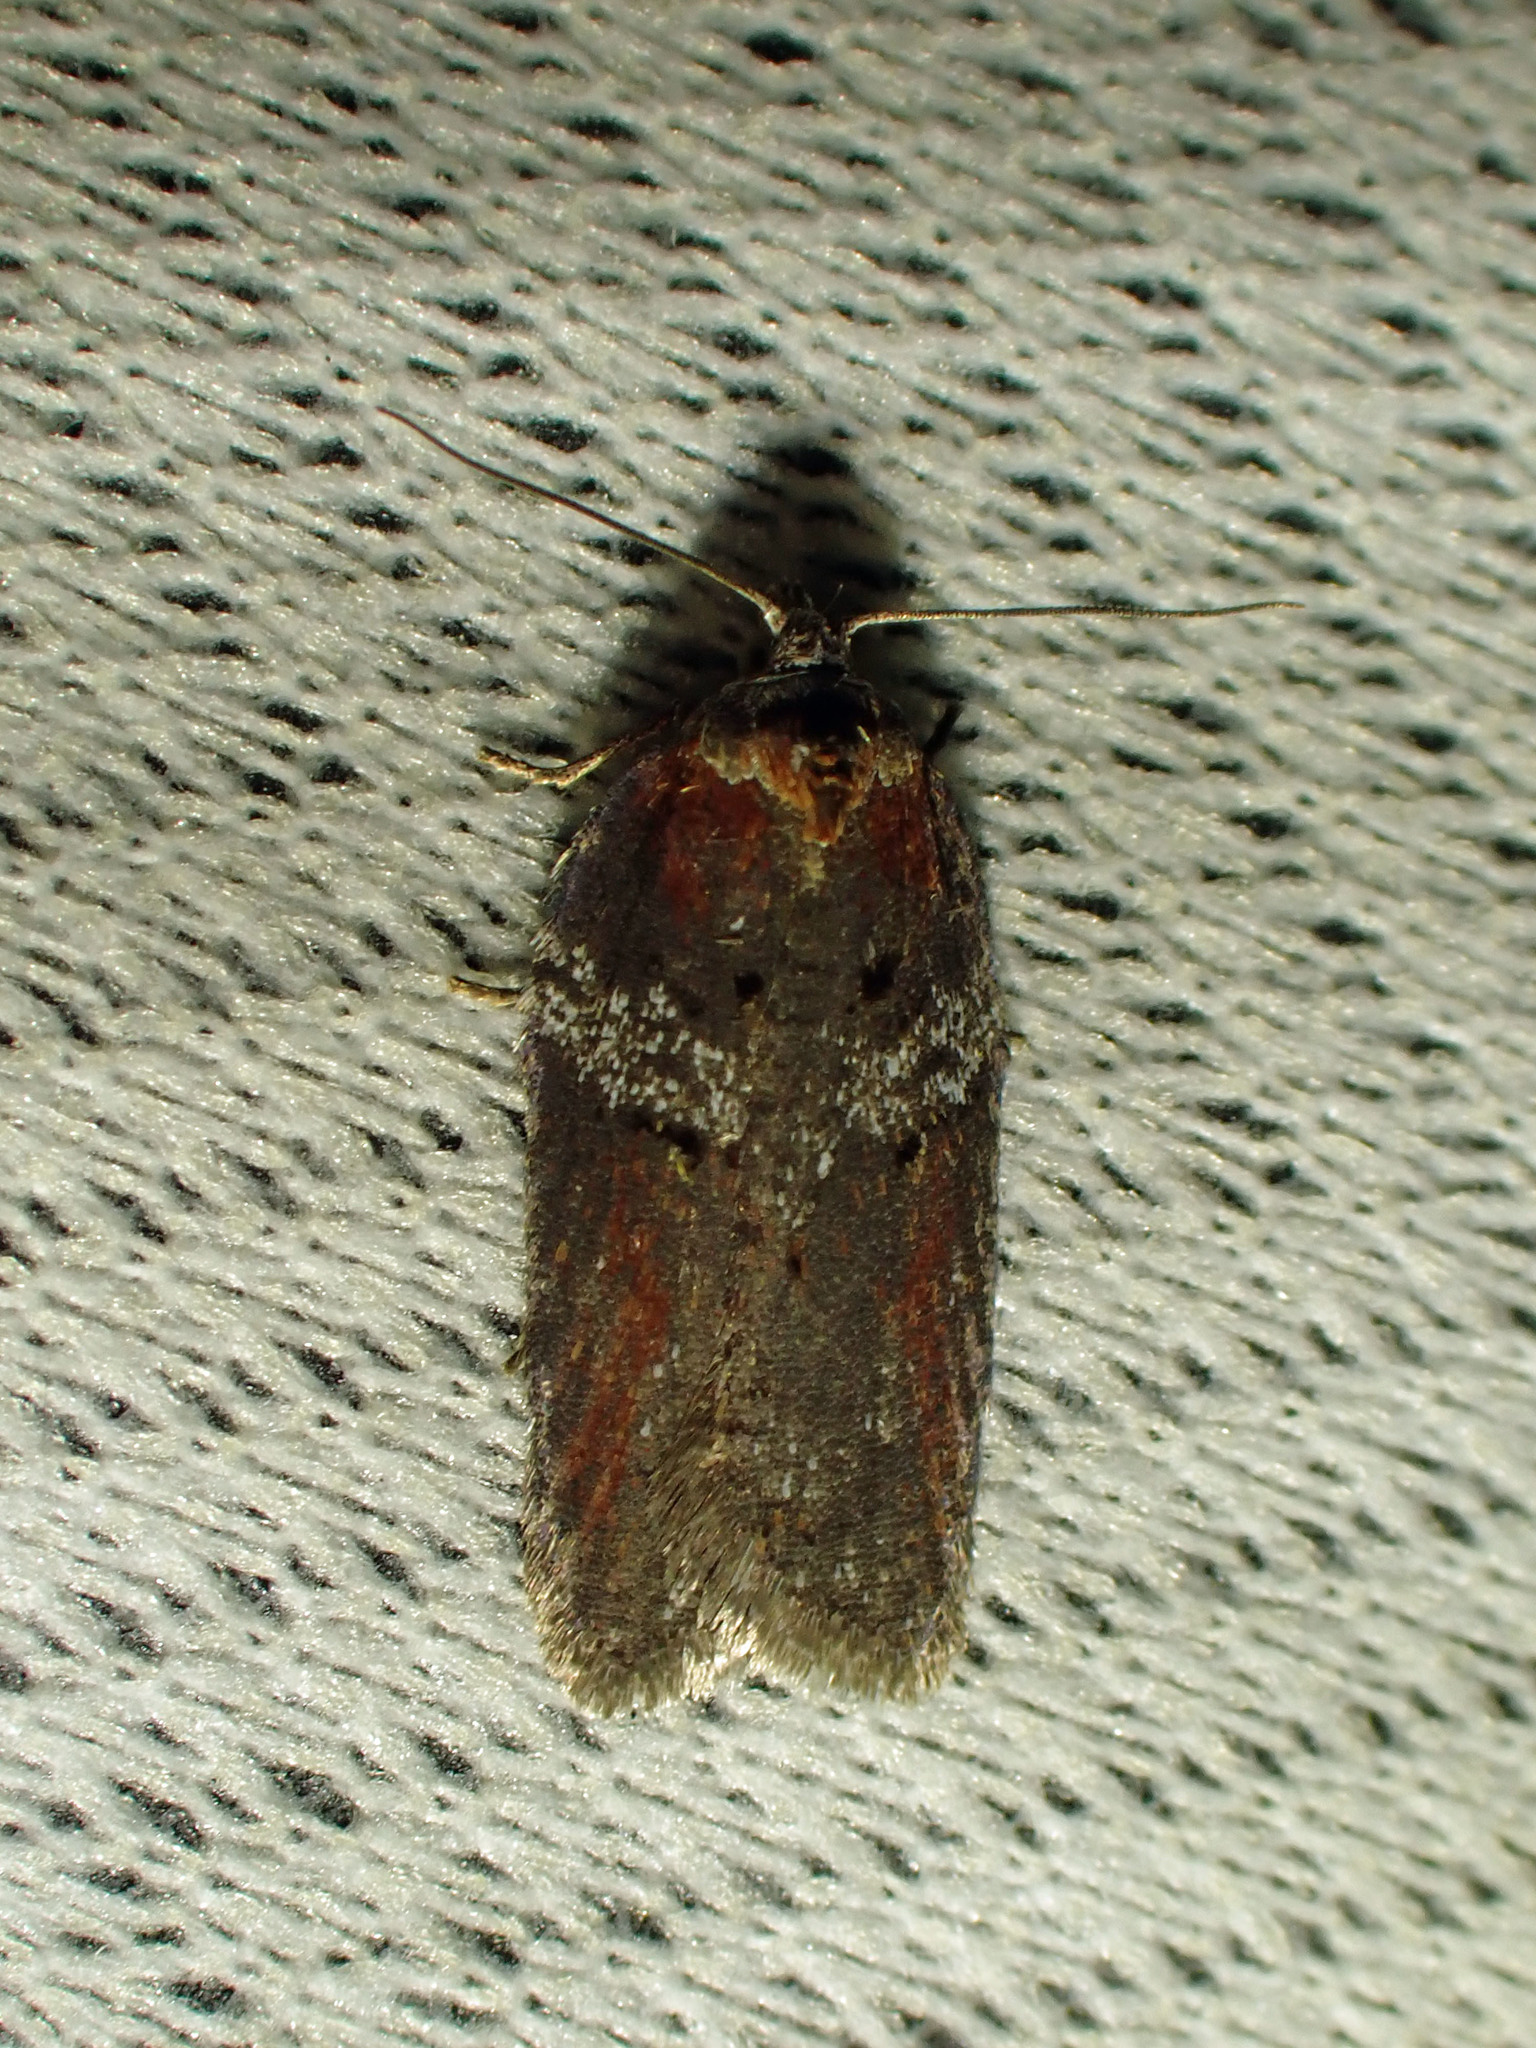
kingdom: Animalia
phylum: Arthropoda
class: Insecta
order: Lepidoptera
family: Tortricidae
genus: Acleris
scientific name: Acleris celiana
